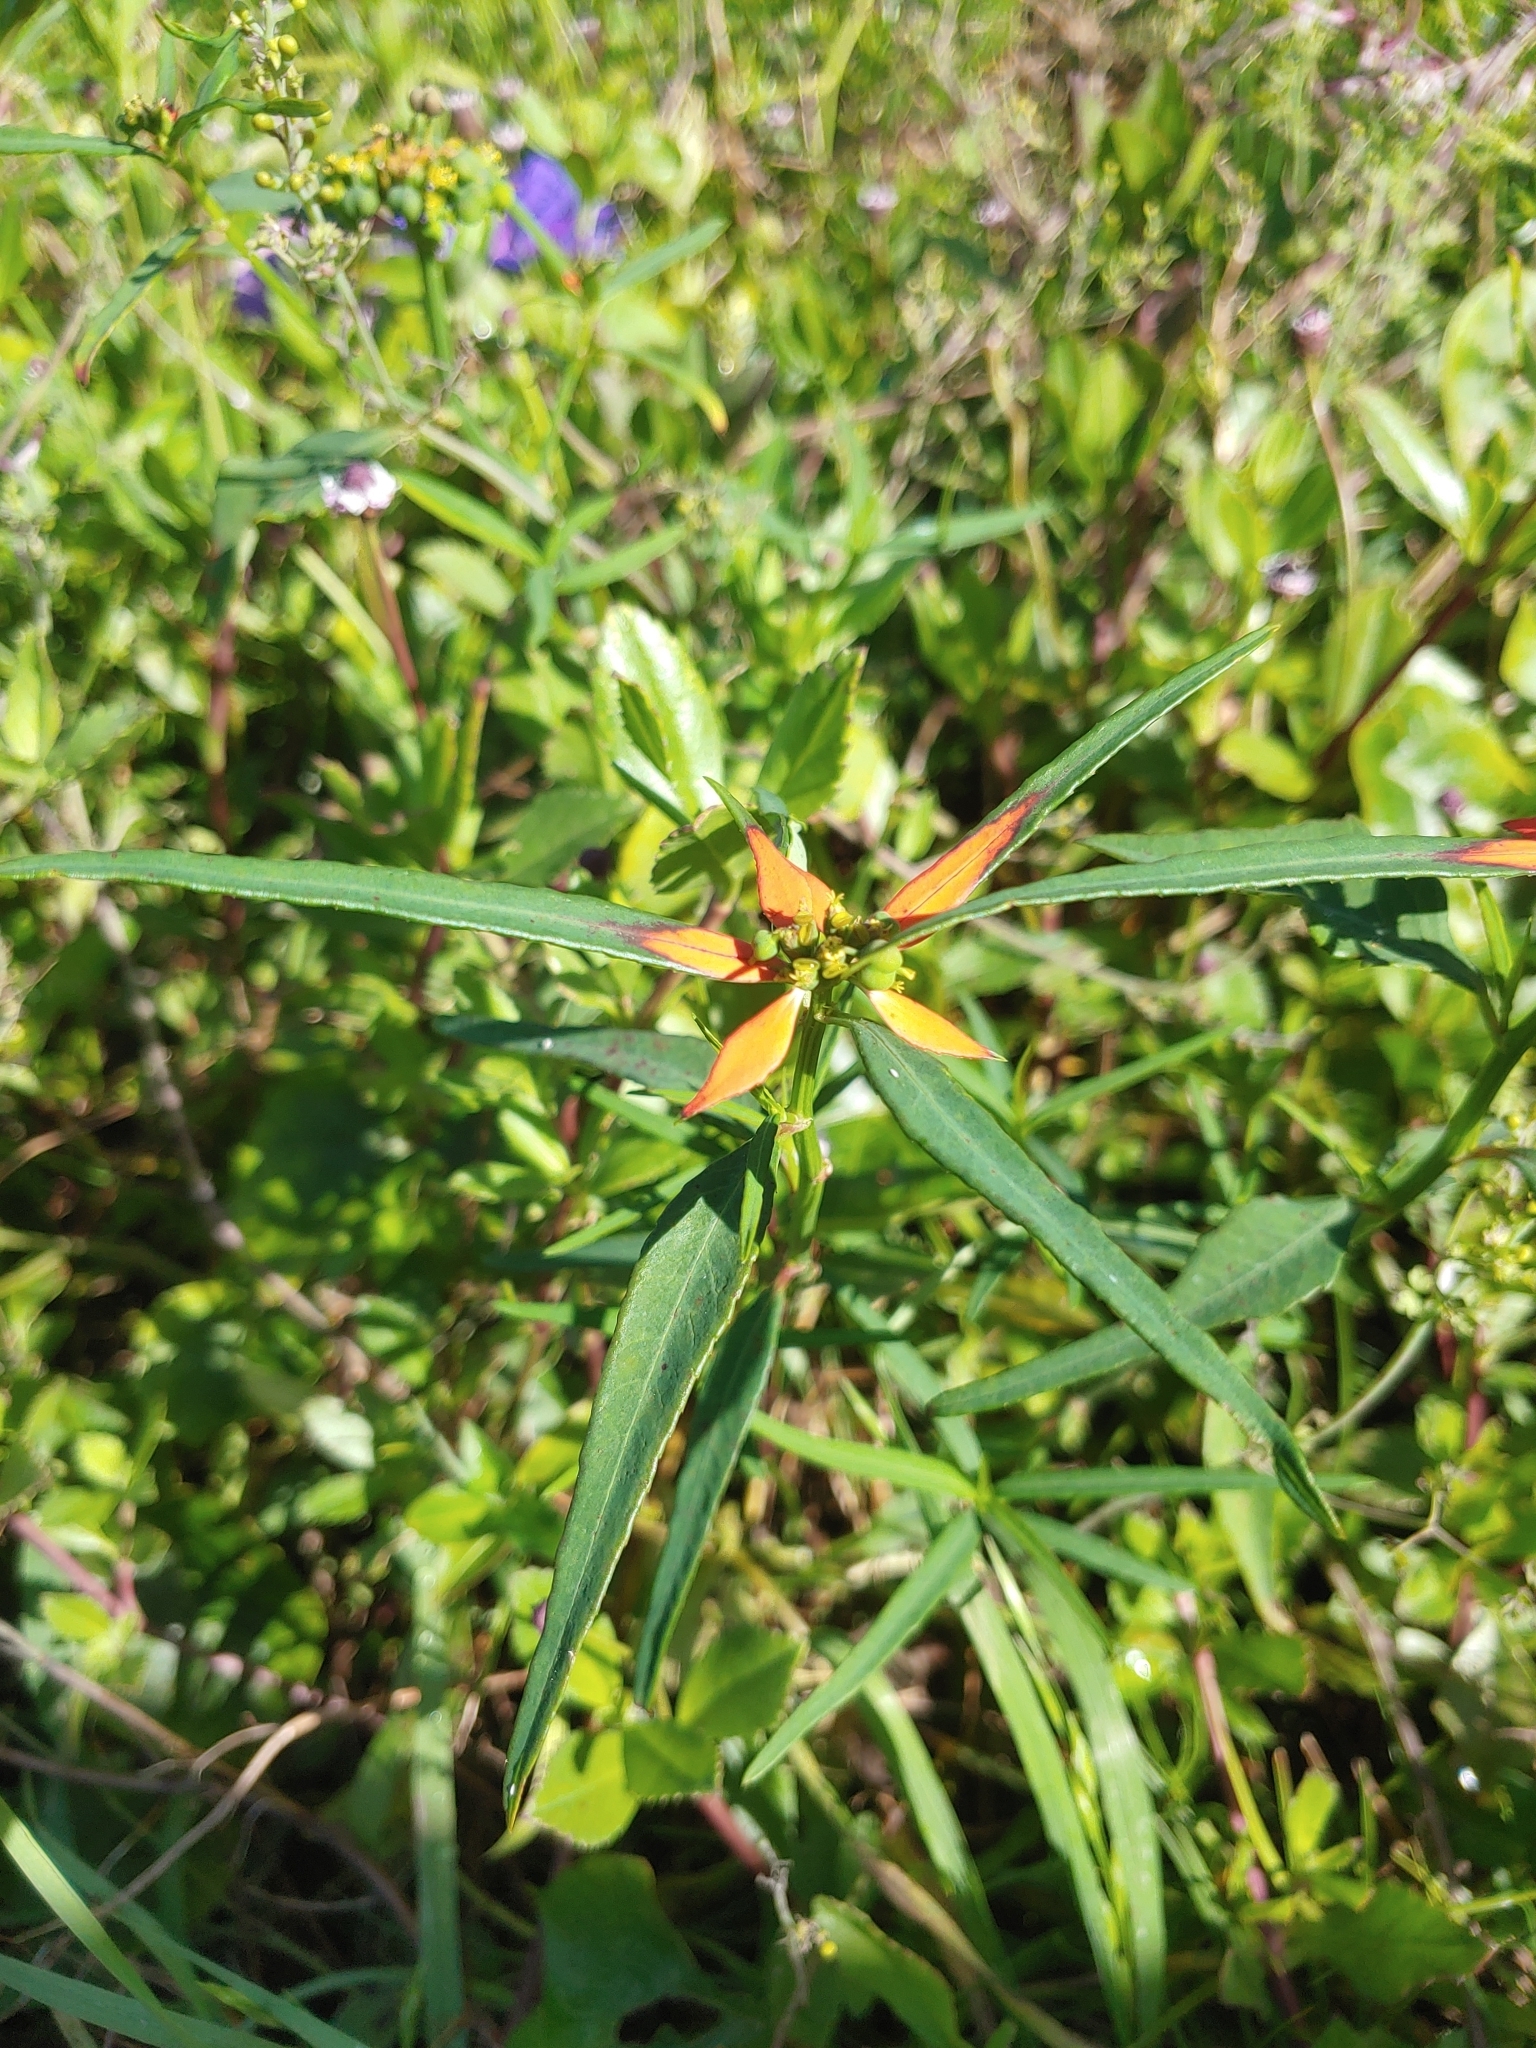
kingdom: Plantae
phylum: Tracheophyta
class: Magnoliopsida
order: Malpighiales
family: Euphorbiaceae
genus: Euphorbia
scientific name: Euphorbia heterophylla
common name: Mexican fireplant
